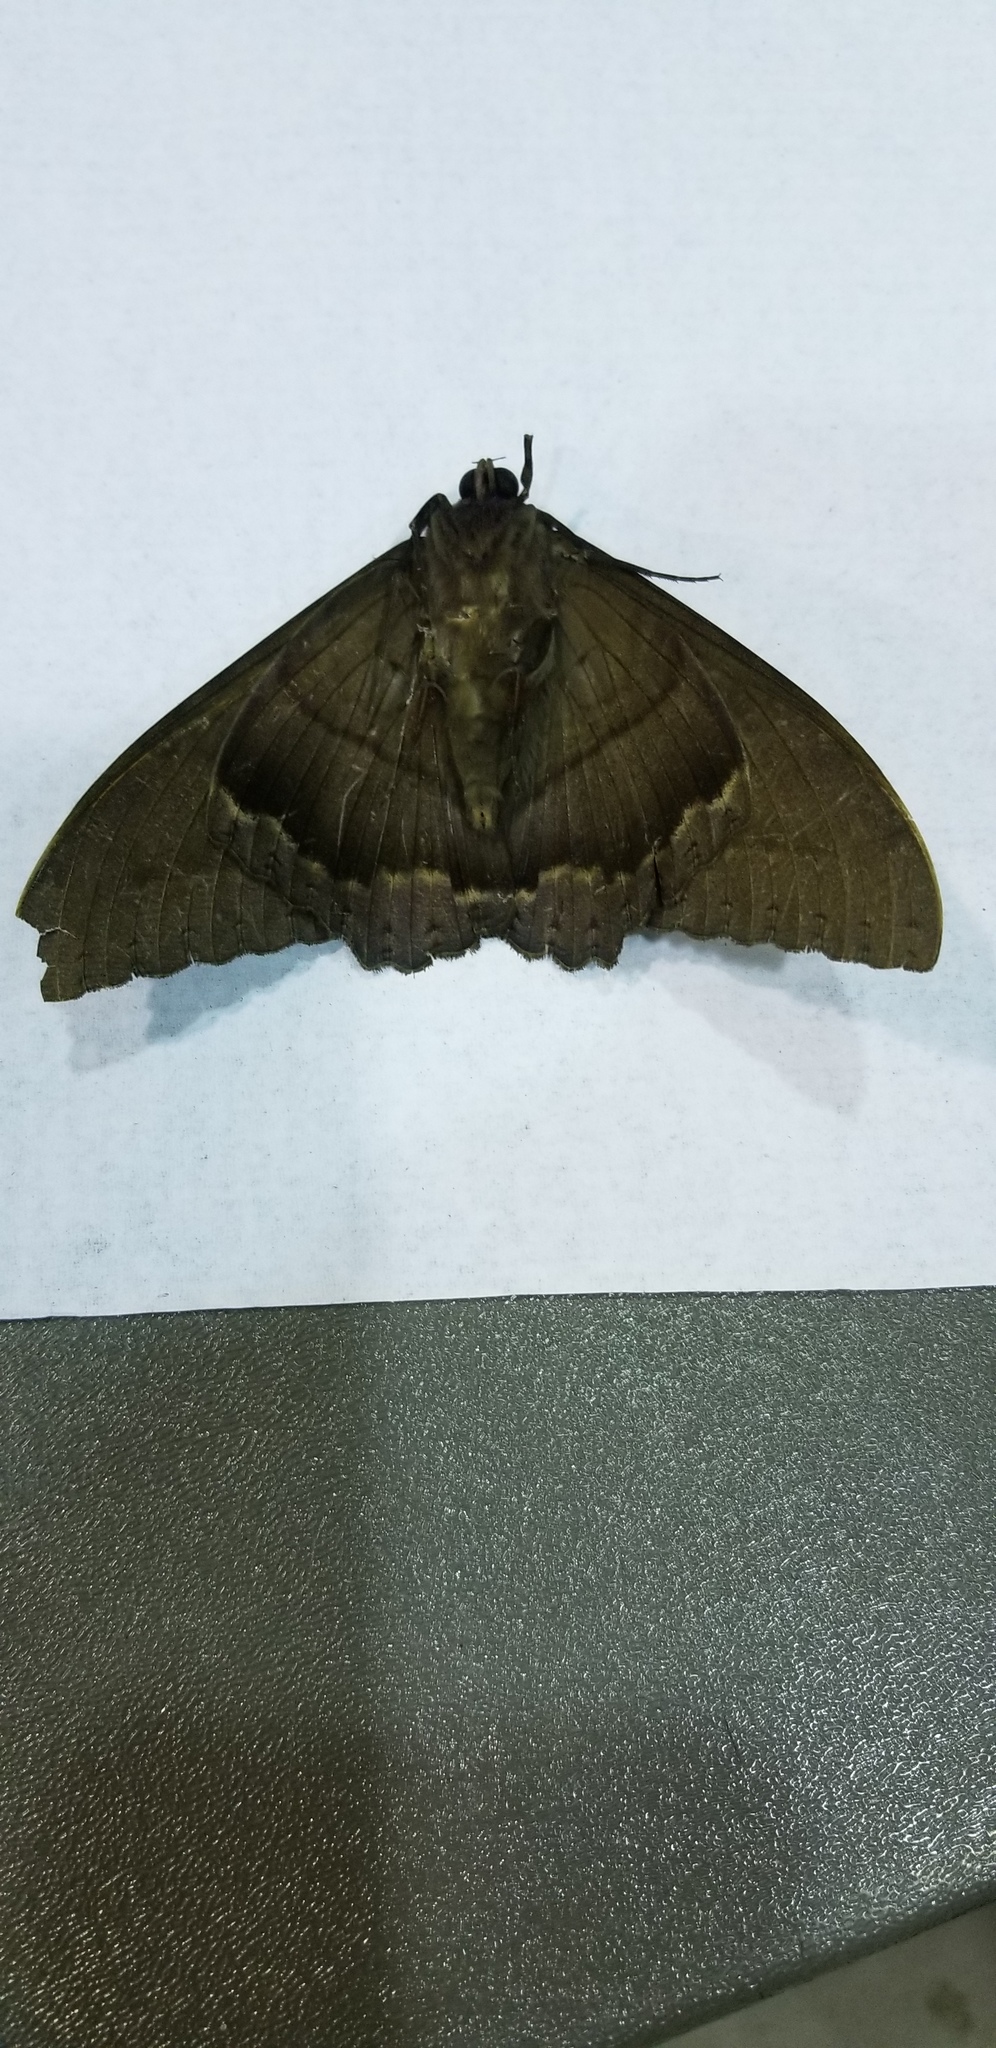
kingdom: Animalia
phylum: Arthropoda
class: Insecta
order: Lepidoptera
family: Erebidae
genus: Ascalapha
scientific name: Ascalapha odorata
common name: Black witch
